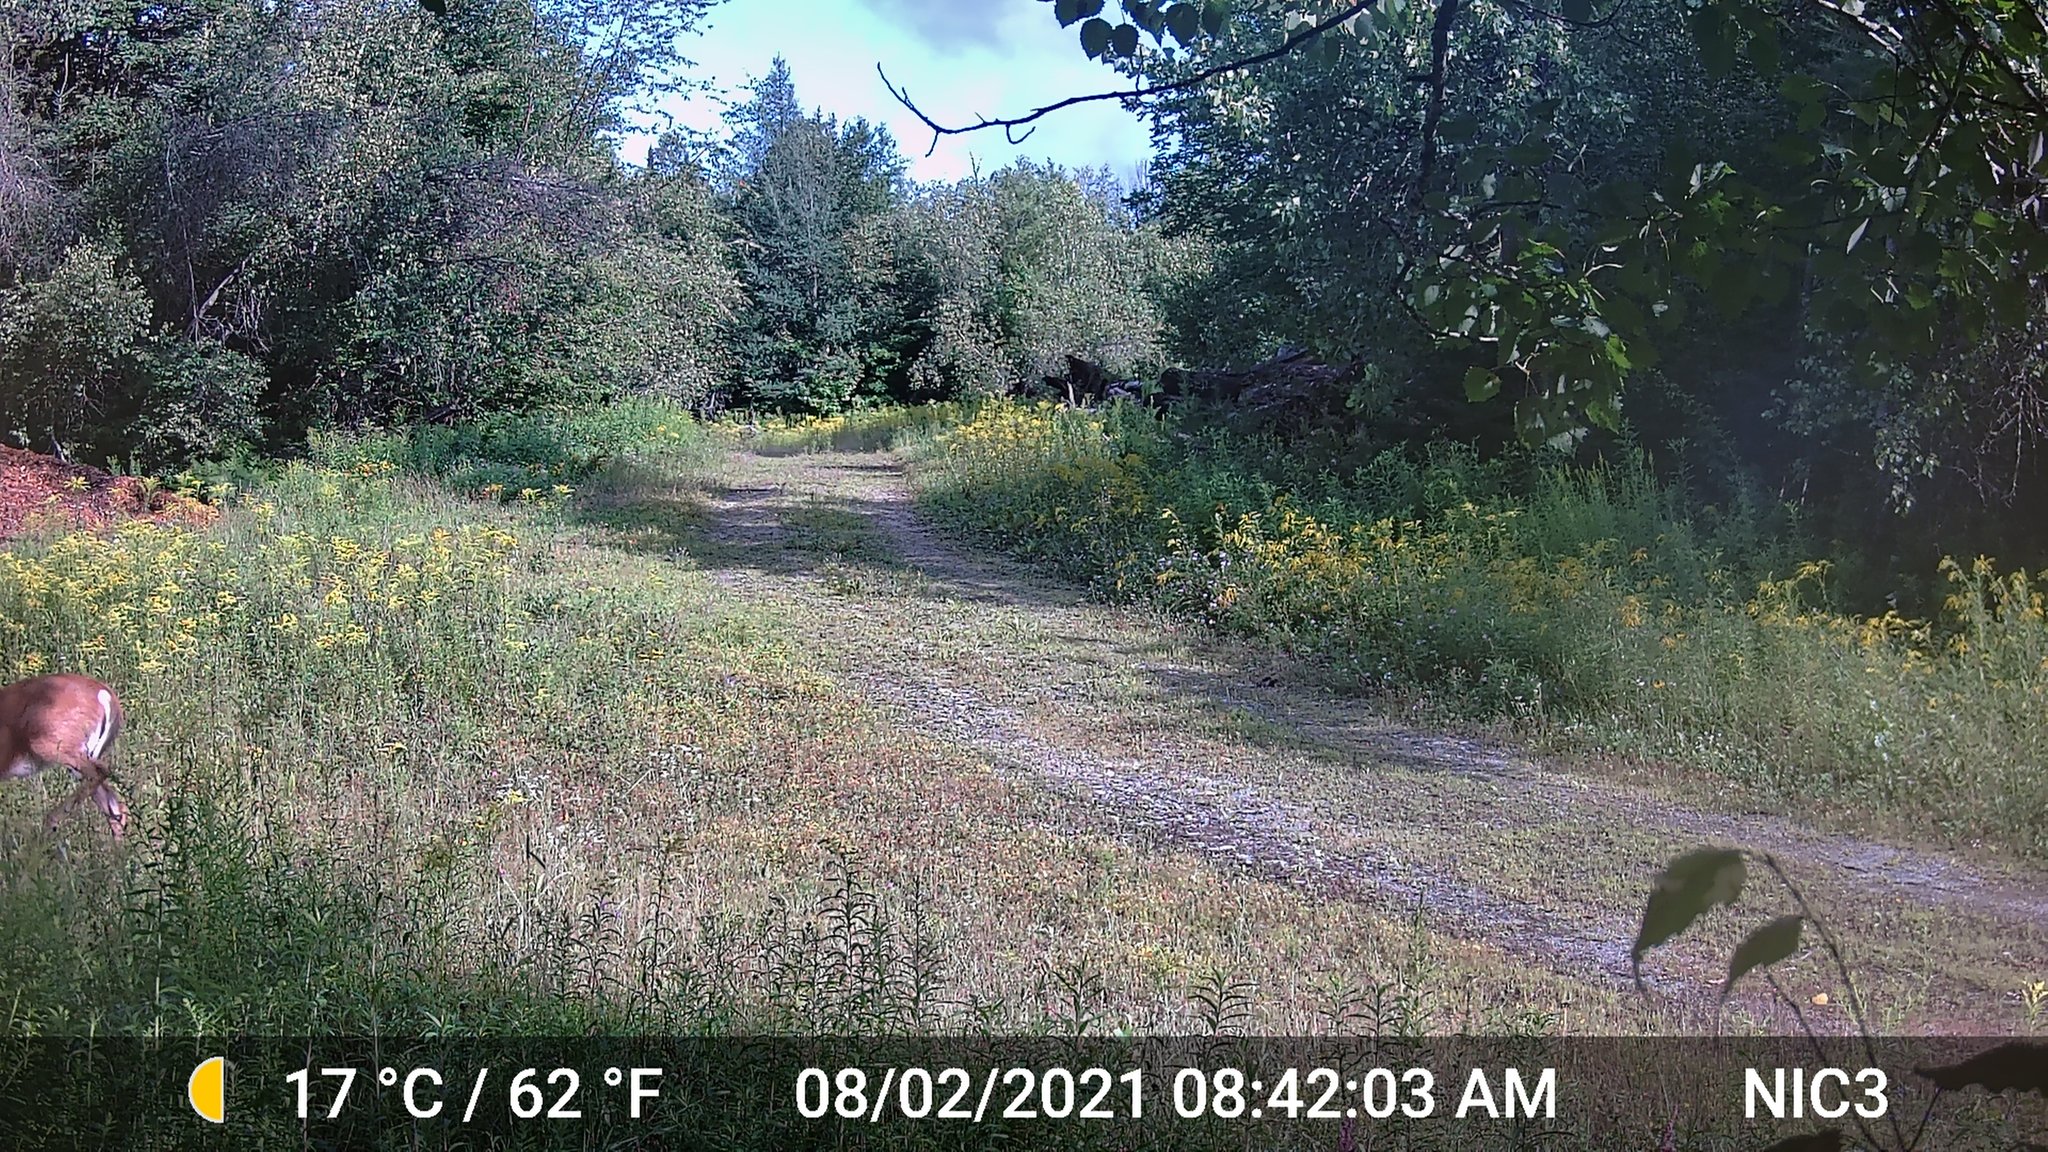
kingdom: Animalia
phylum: Chordata
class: Mammalia
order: Artiodactyla
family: Cervidae
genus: Odocoileus
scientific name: Odocoileus virginianus
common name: White-tailed deer
